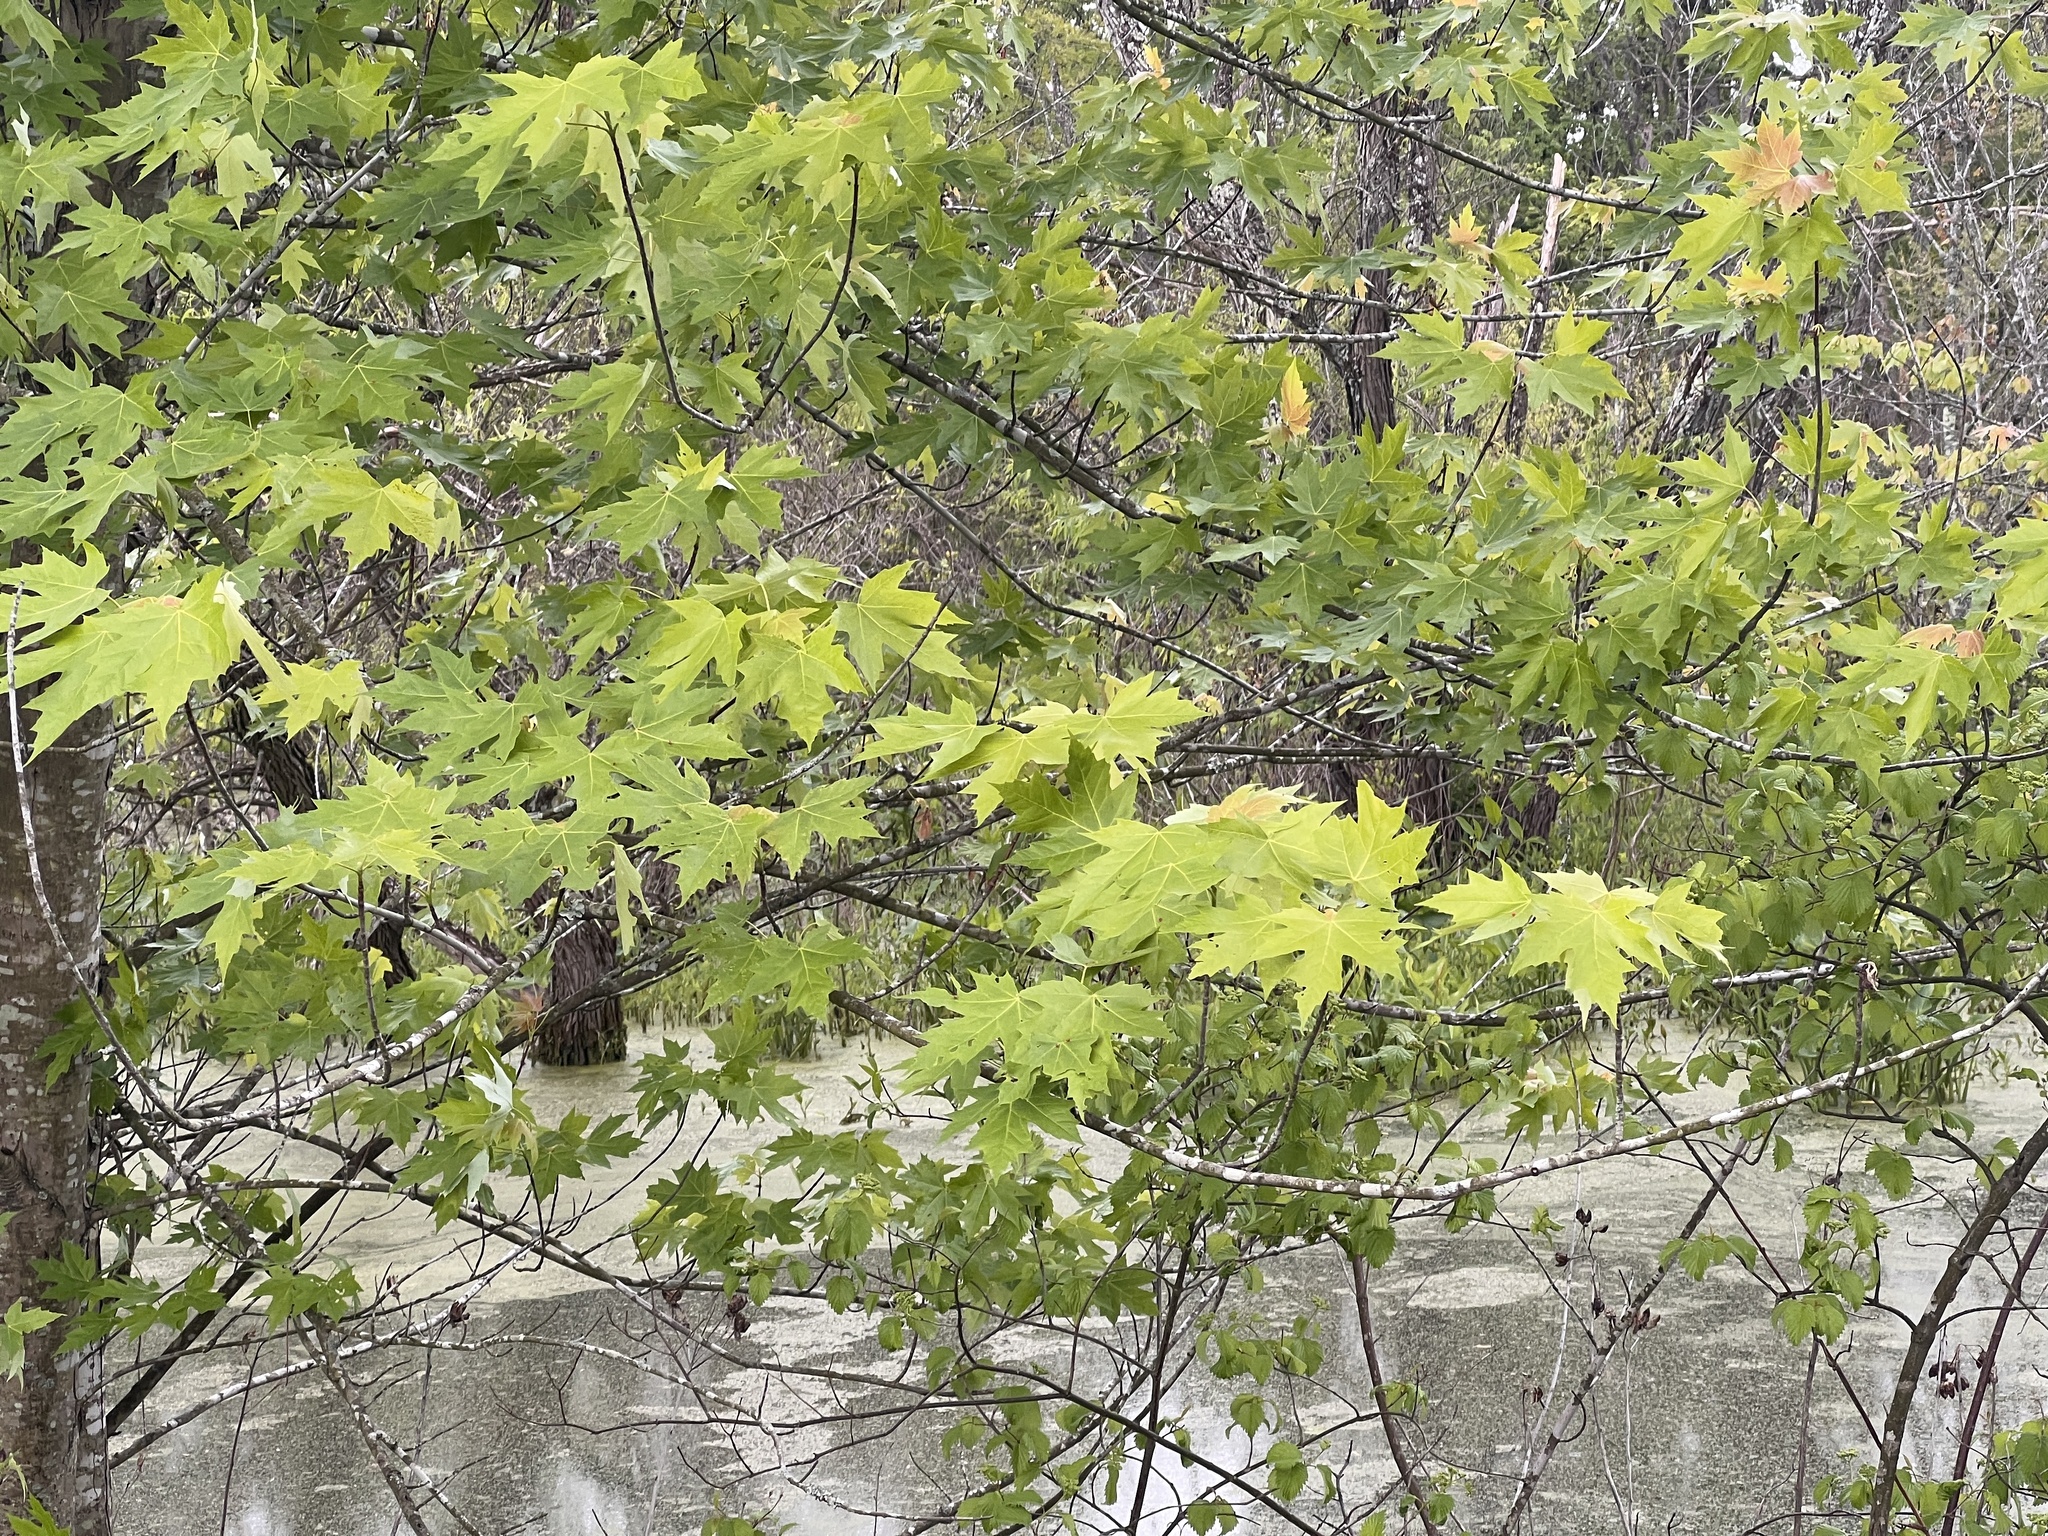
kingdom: Plantae
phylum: Tracheophyta
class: Magnoliopsida
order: Sapindales
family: Sapindaceae
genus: Acer
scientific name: Acer saccharinum
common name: Silver maple
